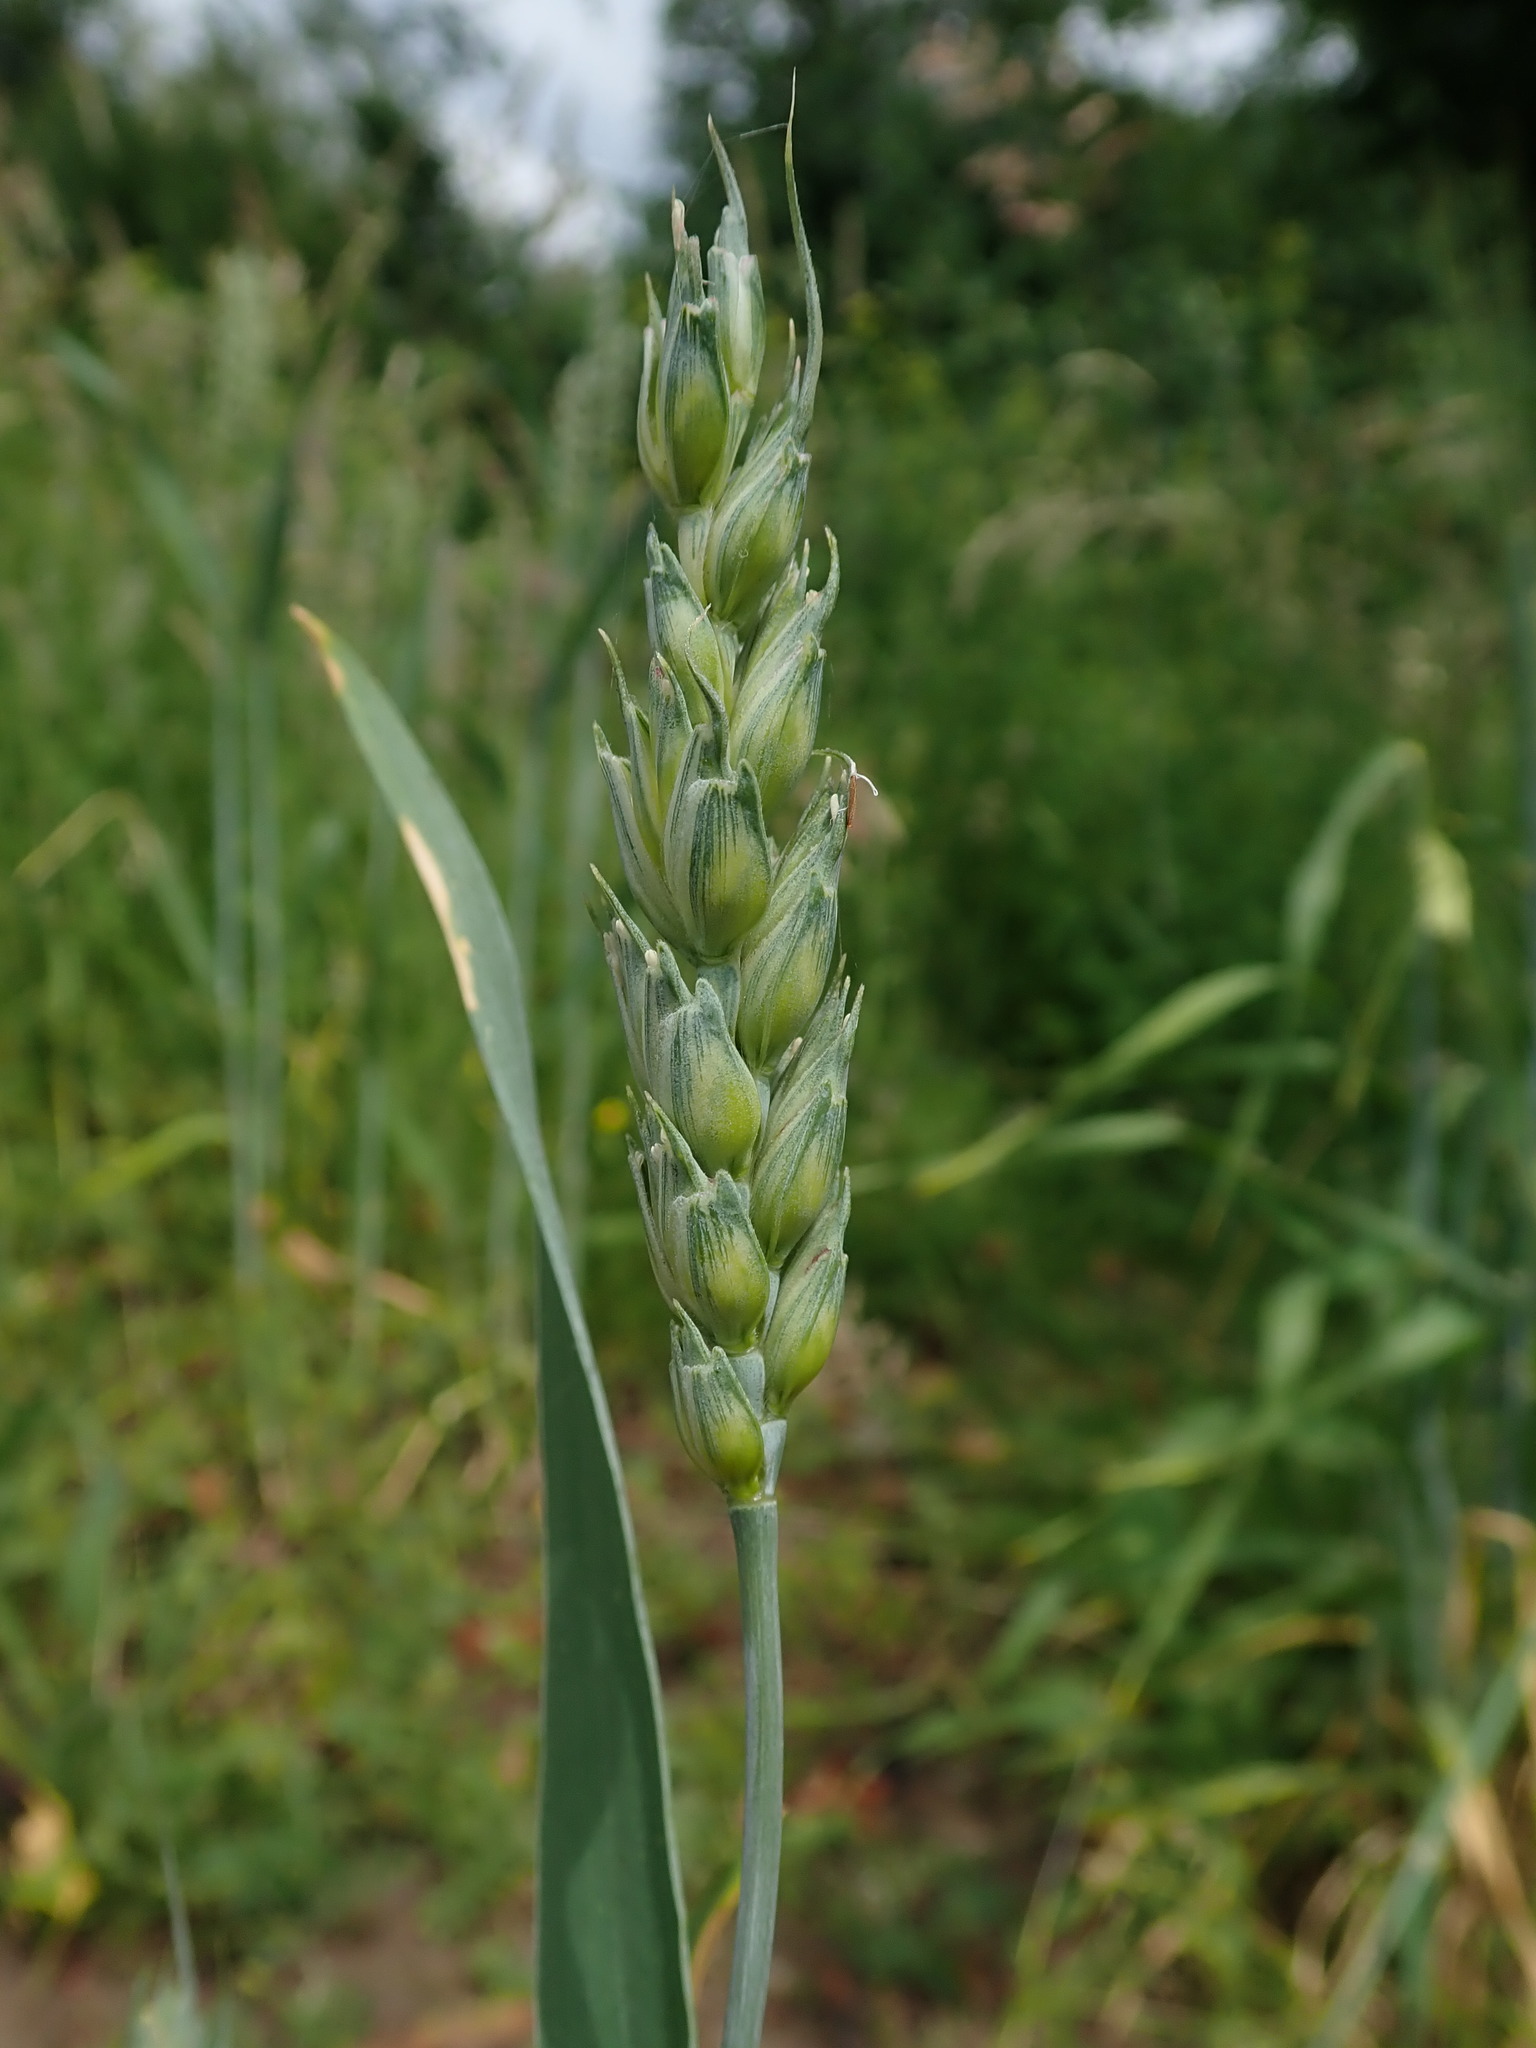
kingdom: Plantae
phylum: Tracheophyta
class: Liliopsida
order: Poales
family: Poaceae
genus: Triticum
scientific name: Triticum aestivum
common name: Common wheat
